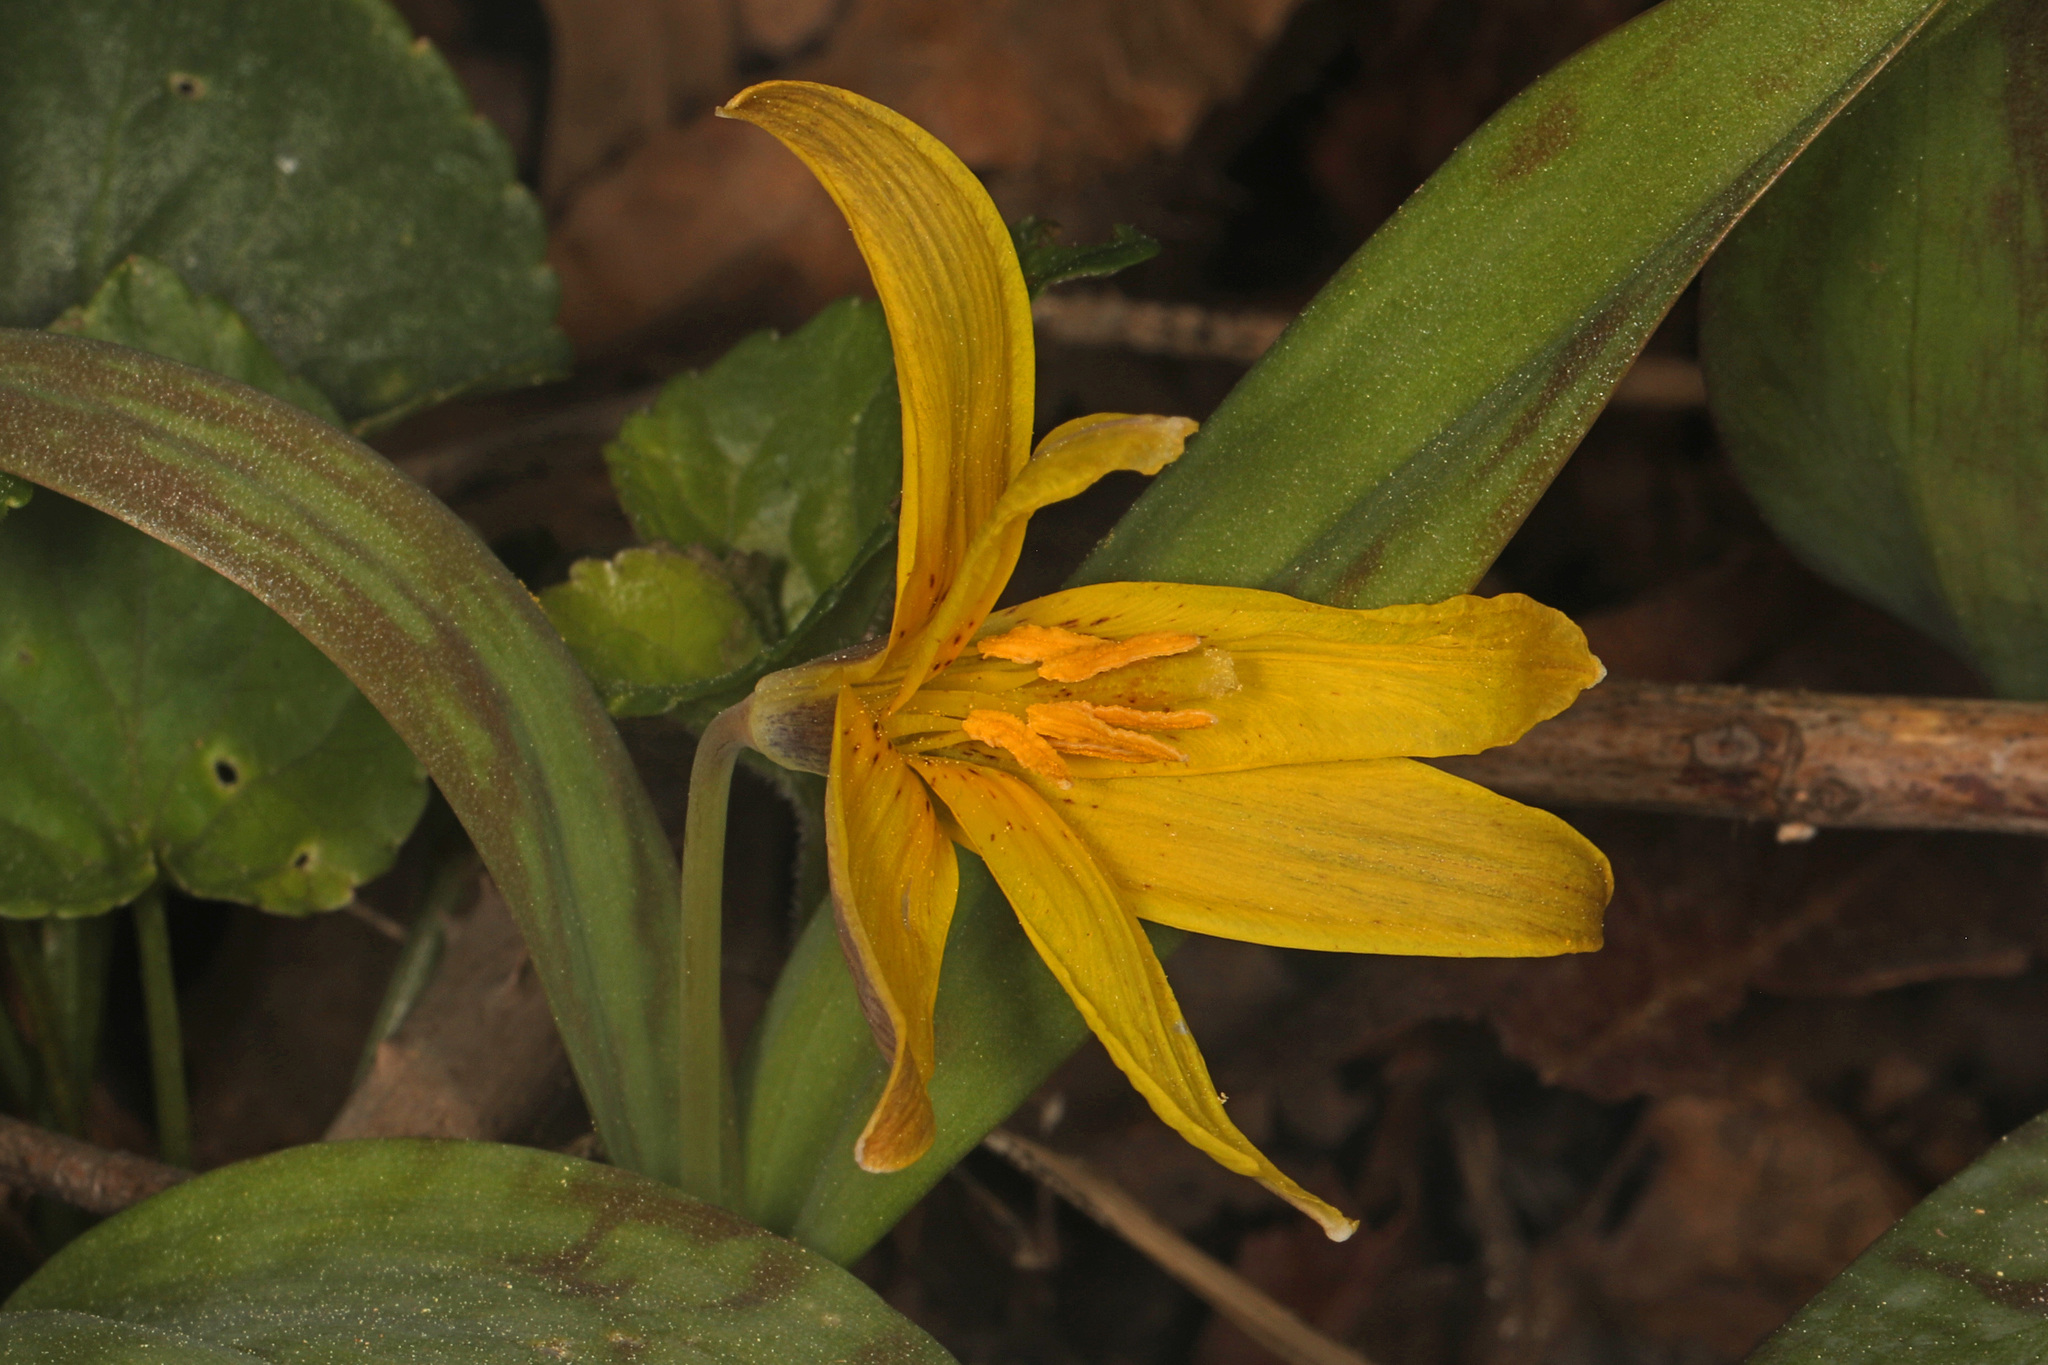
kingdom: Plantae
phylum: Tracheophyta
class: Liliopsida
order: Liliales
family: Liliaceae
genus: Erythronium
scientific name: Erythronium americanum
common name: Yellow adder's-tongue
